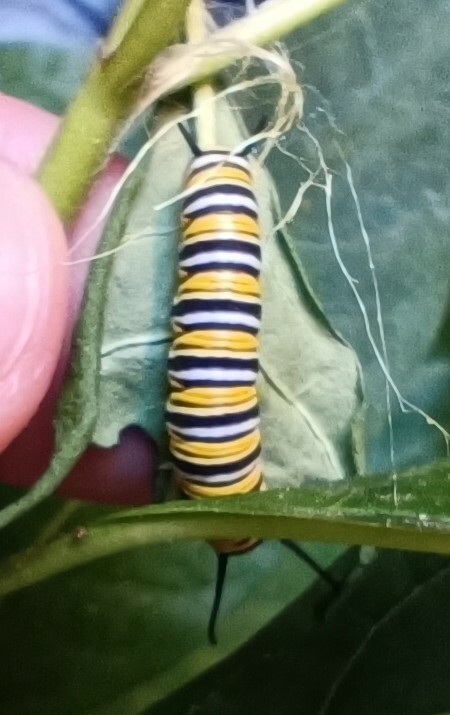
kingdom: Animalia
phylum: Arthropoda
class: Insecta
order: Lepidoptera
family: Nymphalidae
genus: Danaus
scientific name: Danaus plexippus
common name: Monarch
